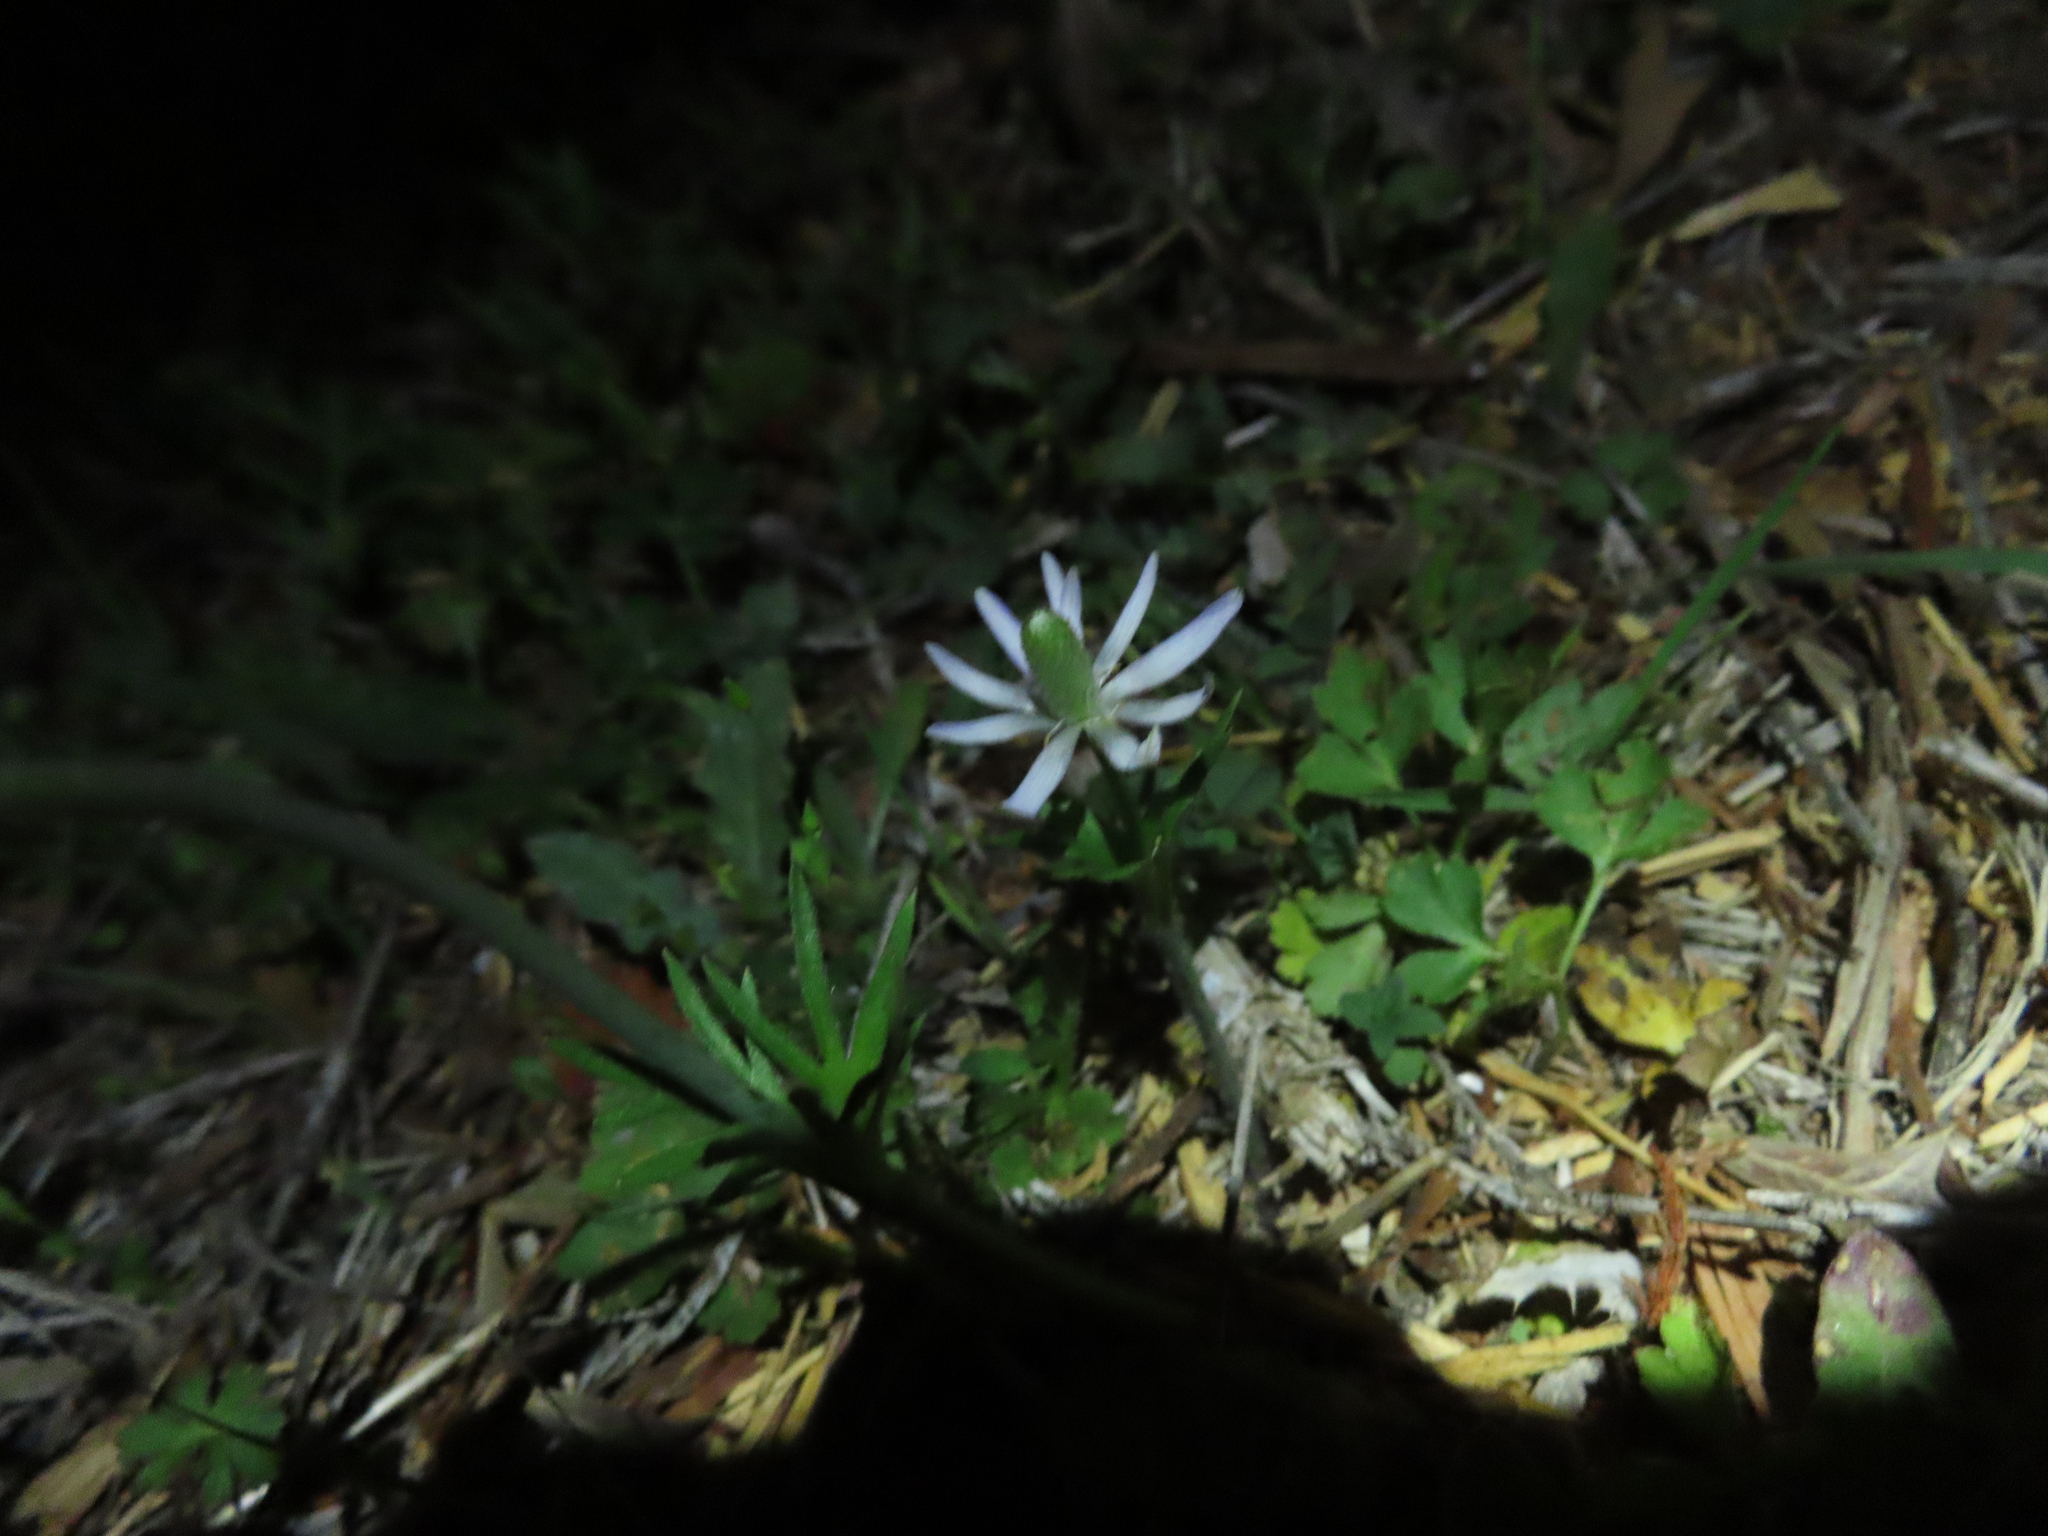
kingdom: Plantae
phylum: Tracheophyta
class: Magnoliopsida
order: Ranunculales
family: Ranunculaceae
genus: Anemone
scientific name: Anemone berlandieri
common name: Ten-petal anemone
